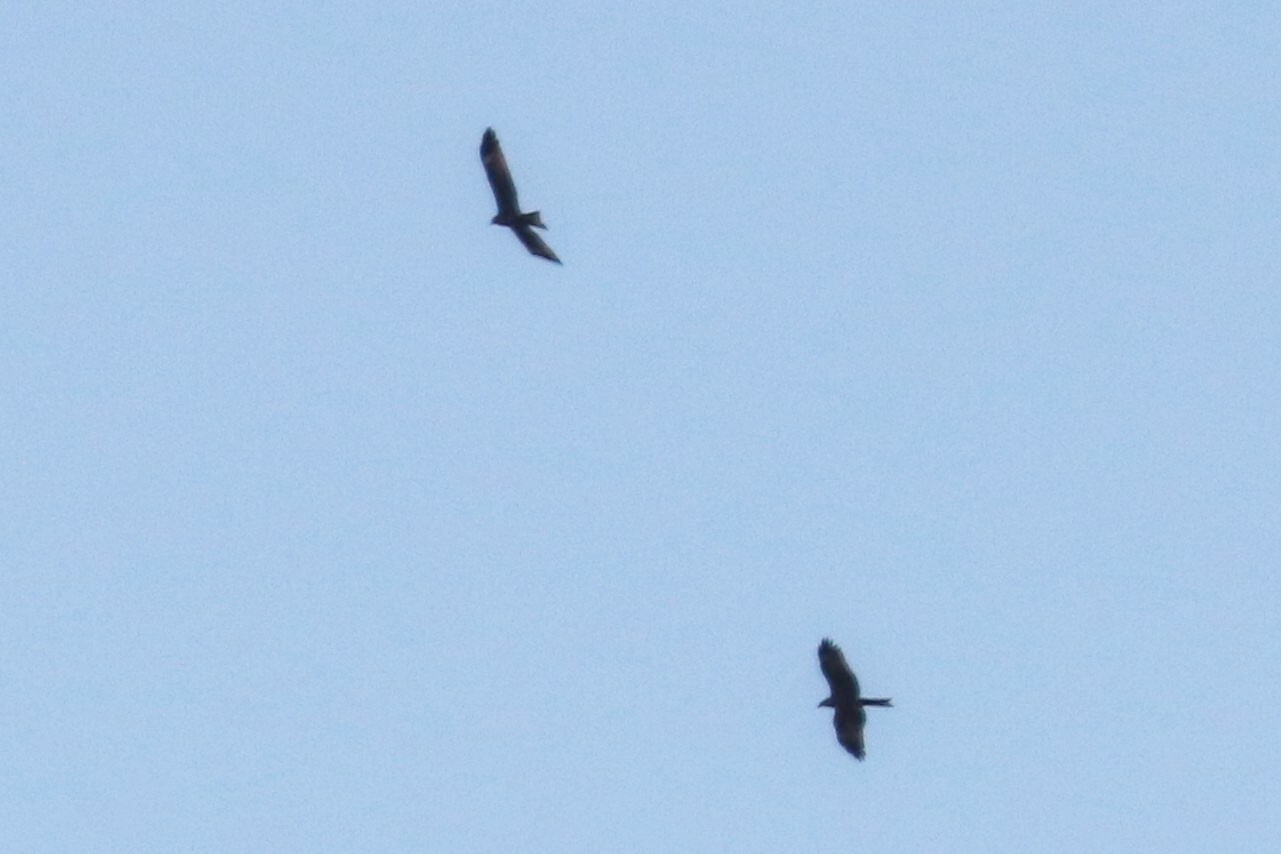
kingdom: Animalia
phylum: Chordata
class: Aves
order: Accipitriformes
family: Accipitridae
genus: Milvus
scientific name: Milvus migrans
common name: Black kite
